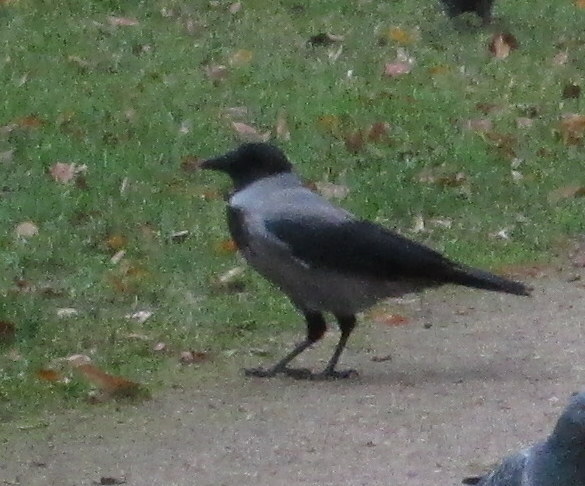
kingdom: Animalia
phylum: Chordata
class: Aves
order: Passeriformes
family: Corvidae
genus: Corvus
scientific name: Corvus cornix
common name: Hooded crow
